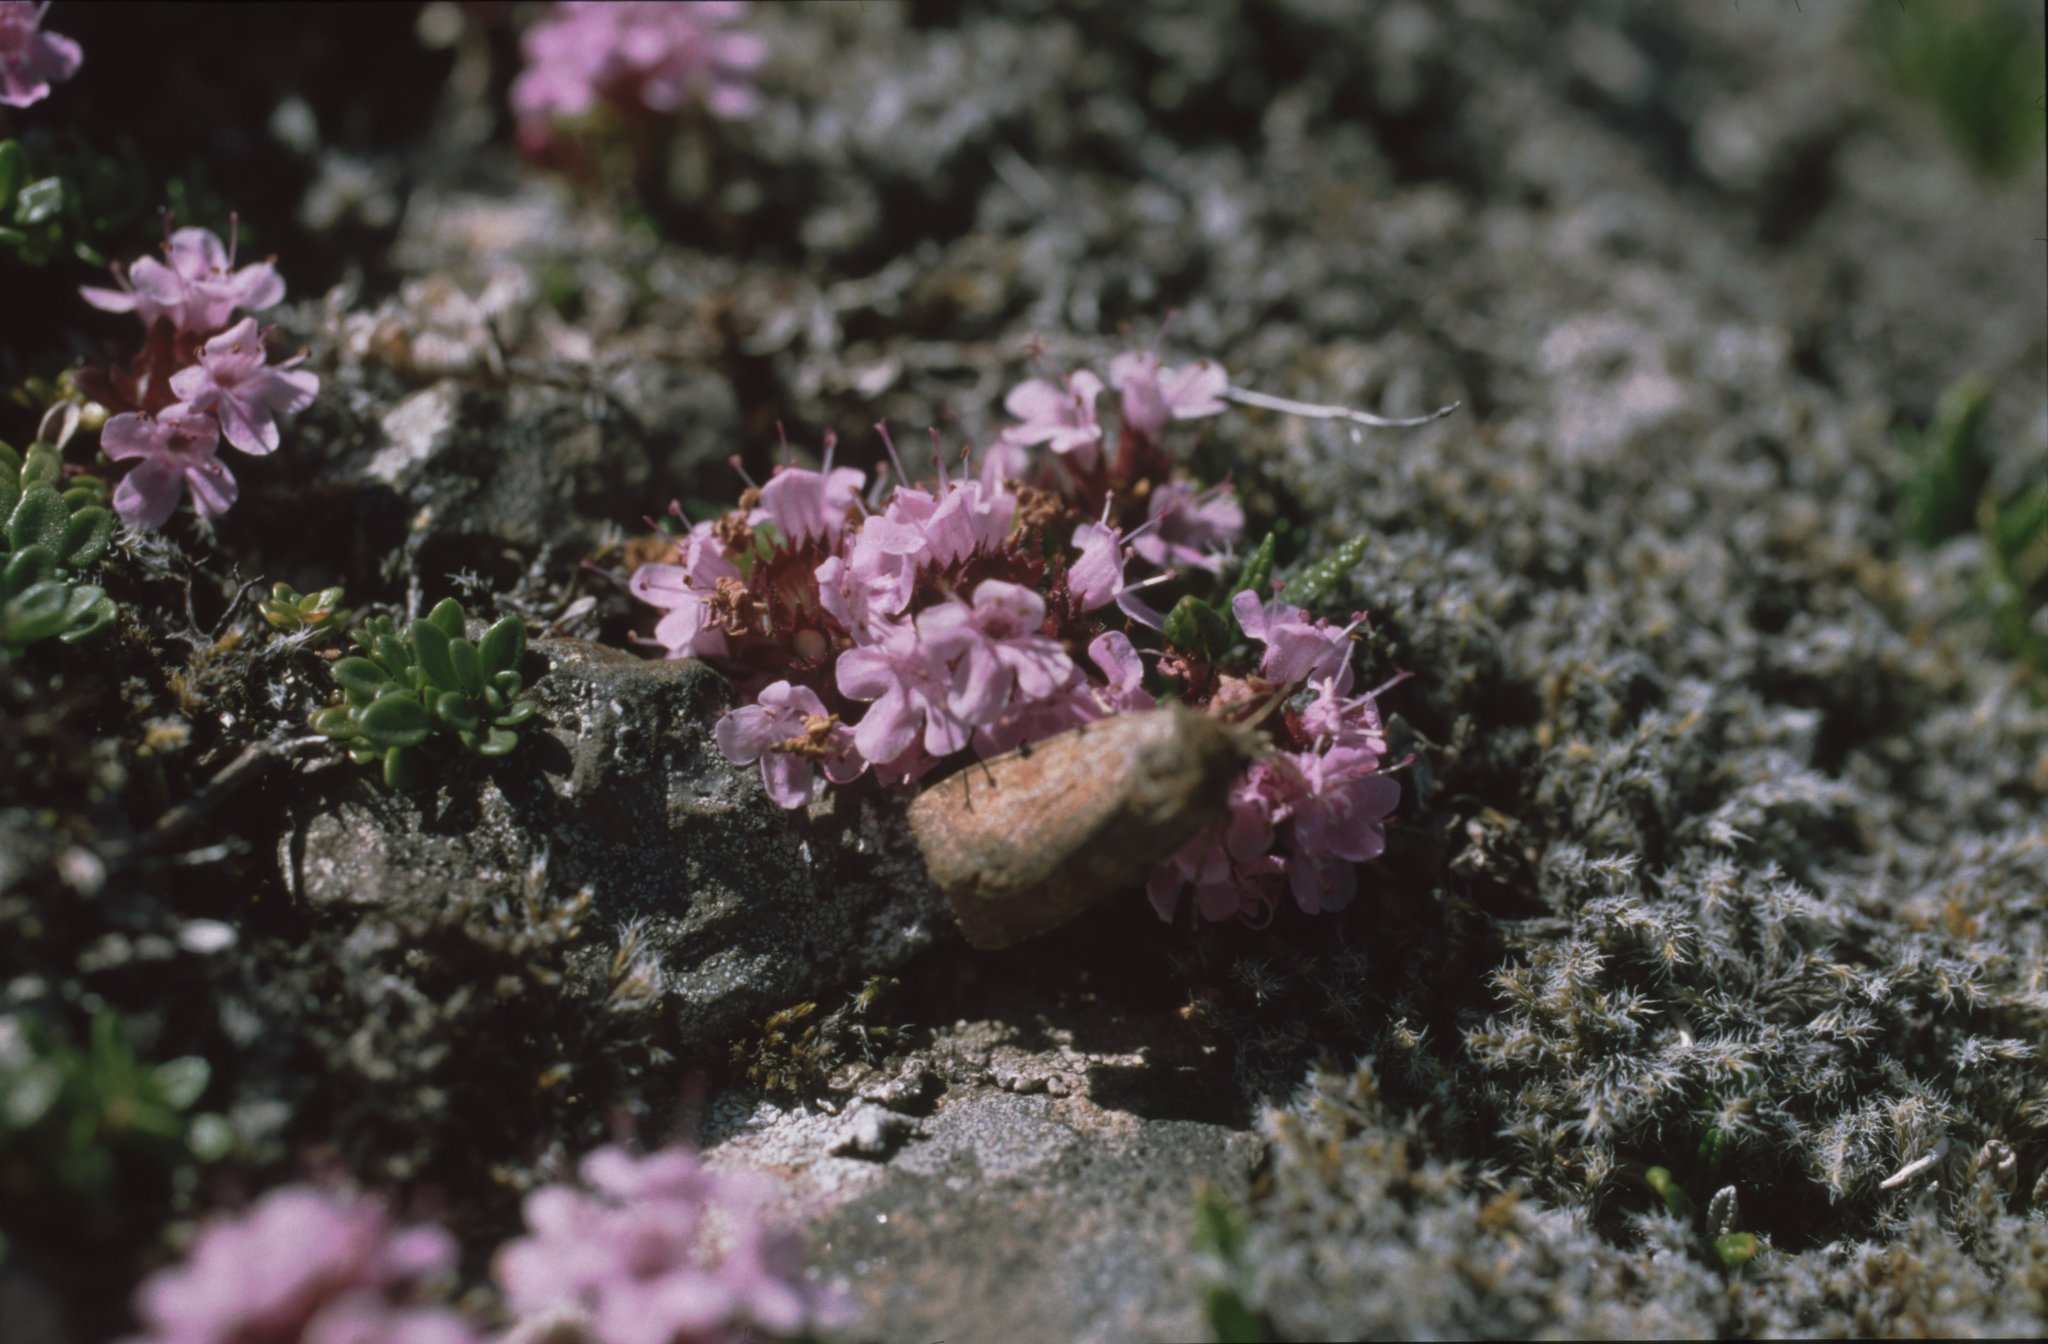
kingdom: Plantae
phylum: Tracheophyta
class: Magnoliopsida
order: Lamiales
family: Lamiaceae
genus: Thymus
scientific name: Thymus praecox
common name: Wild thyme
